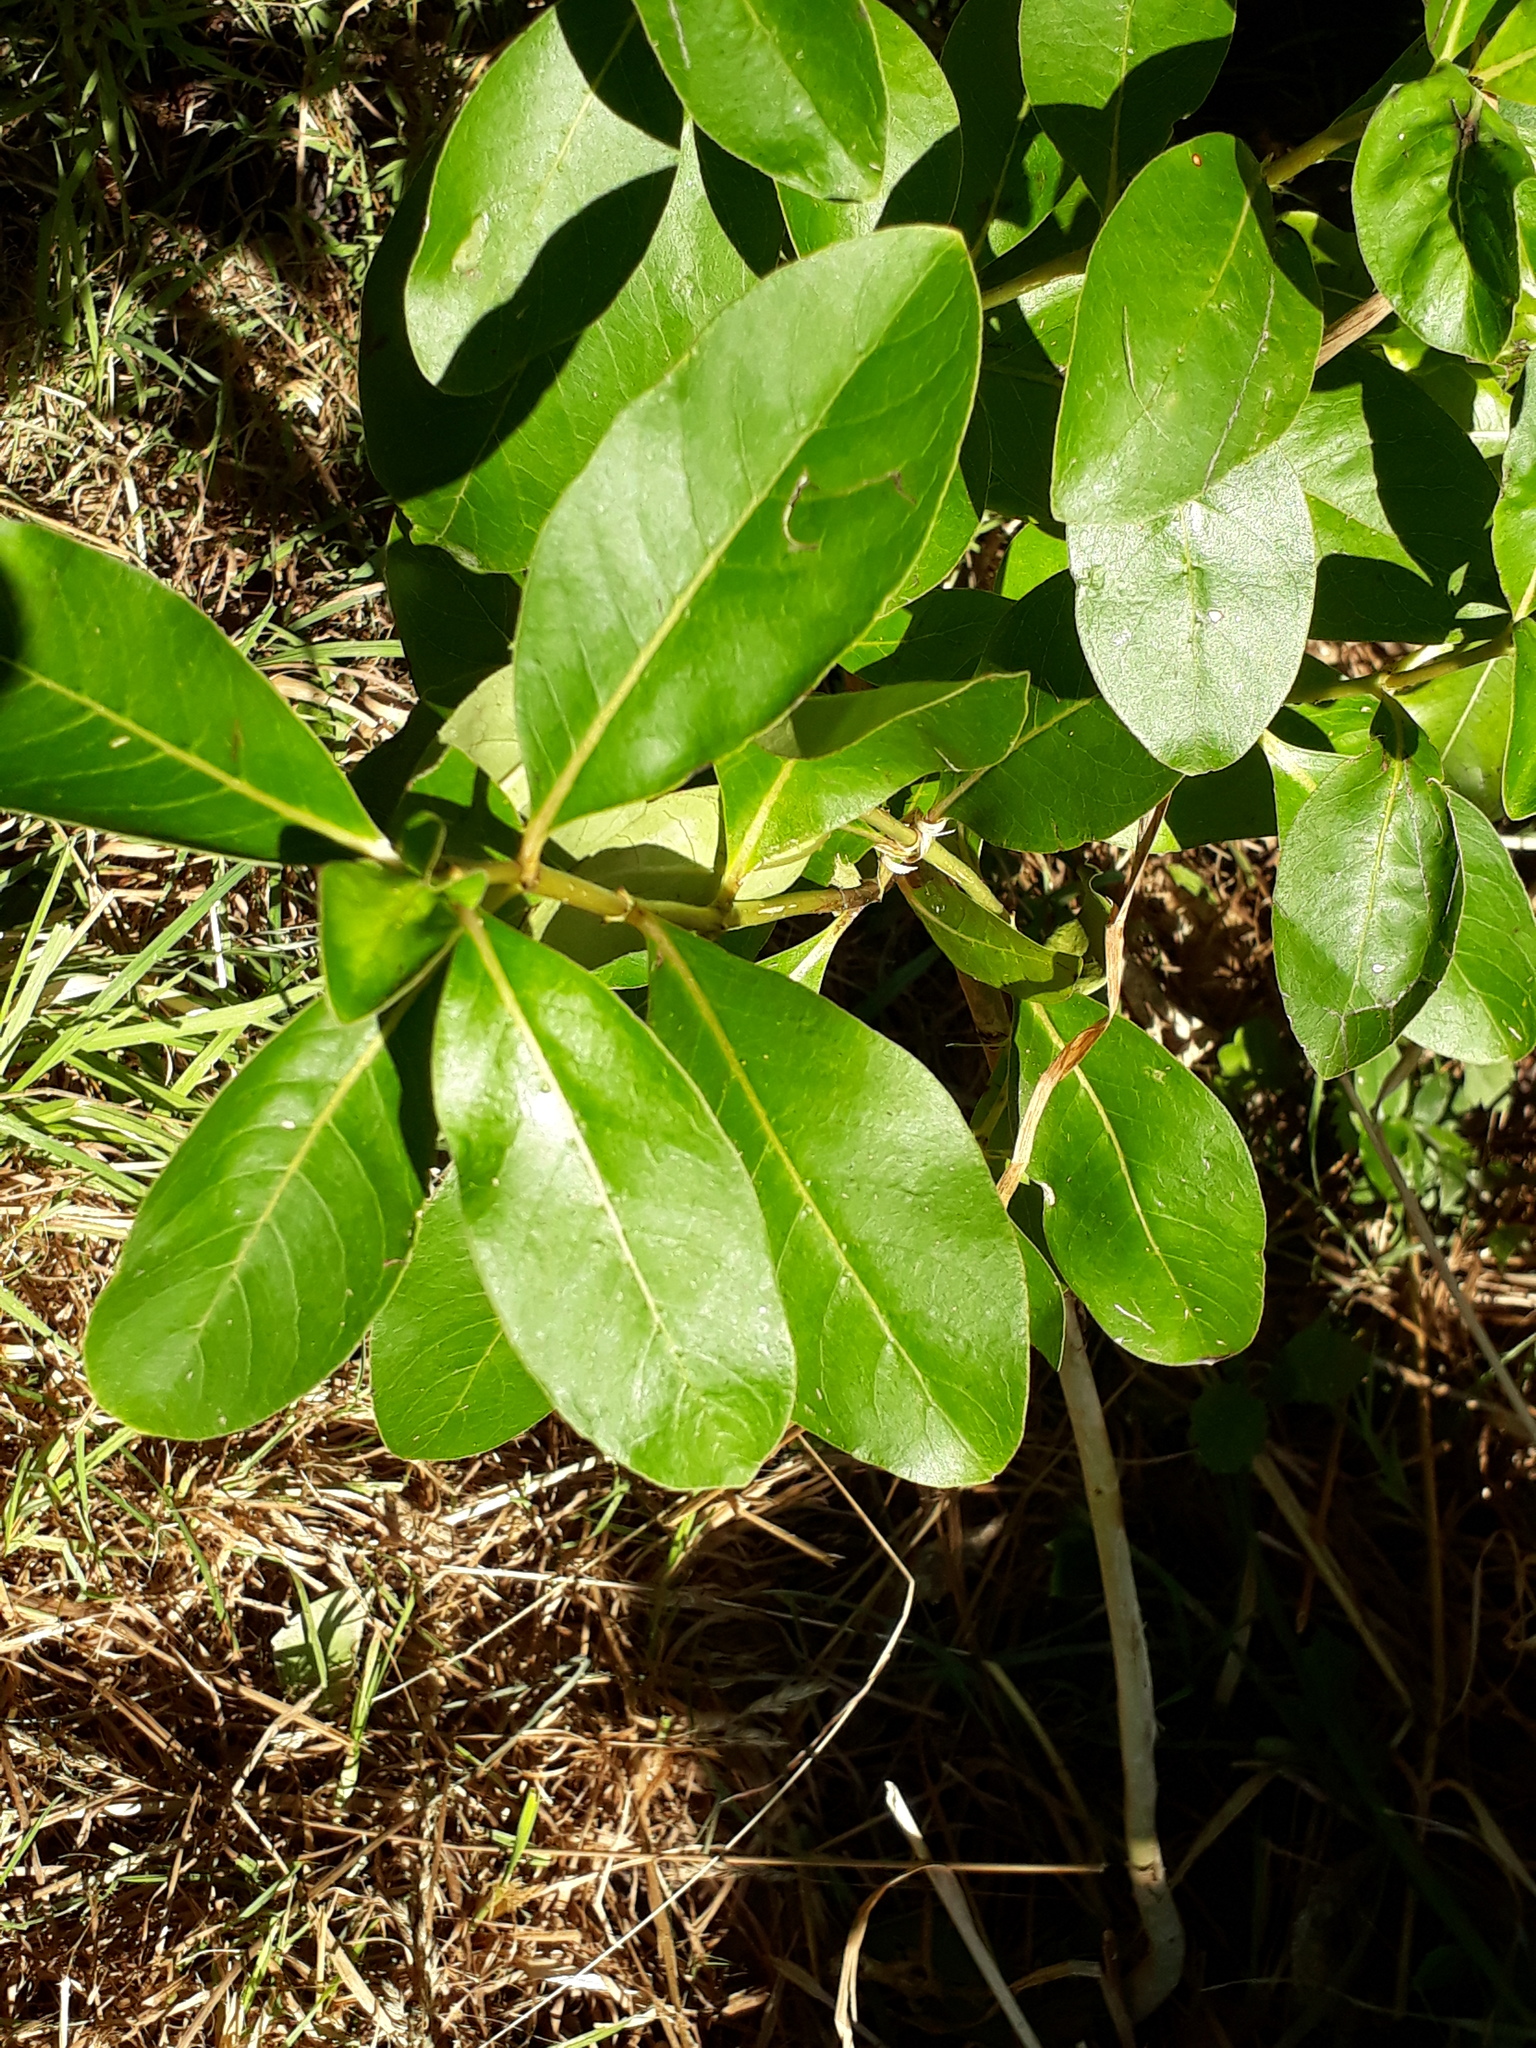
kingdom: Plantae
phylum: Tracheophyta
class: Magnoliopsida
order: Gentianales
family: Rubiaceae
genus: Coprosma
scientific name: Coprosma lucida
